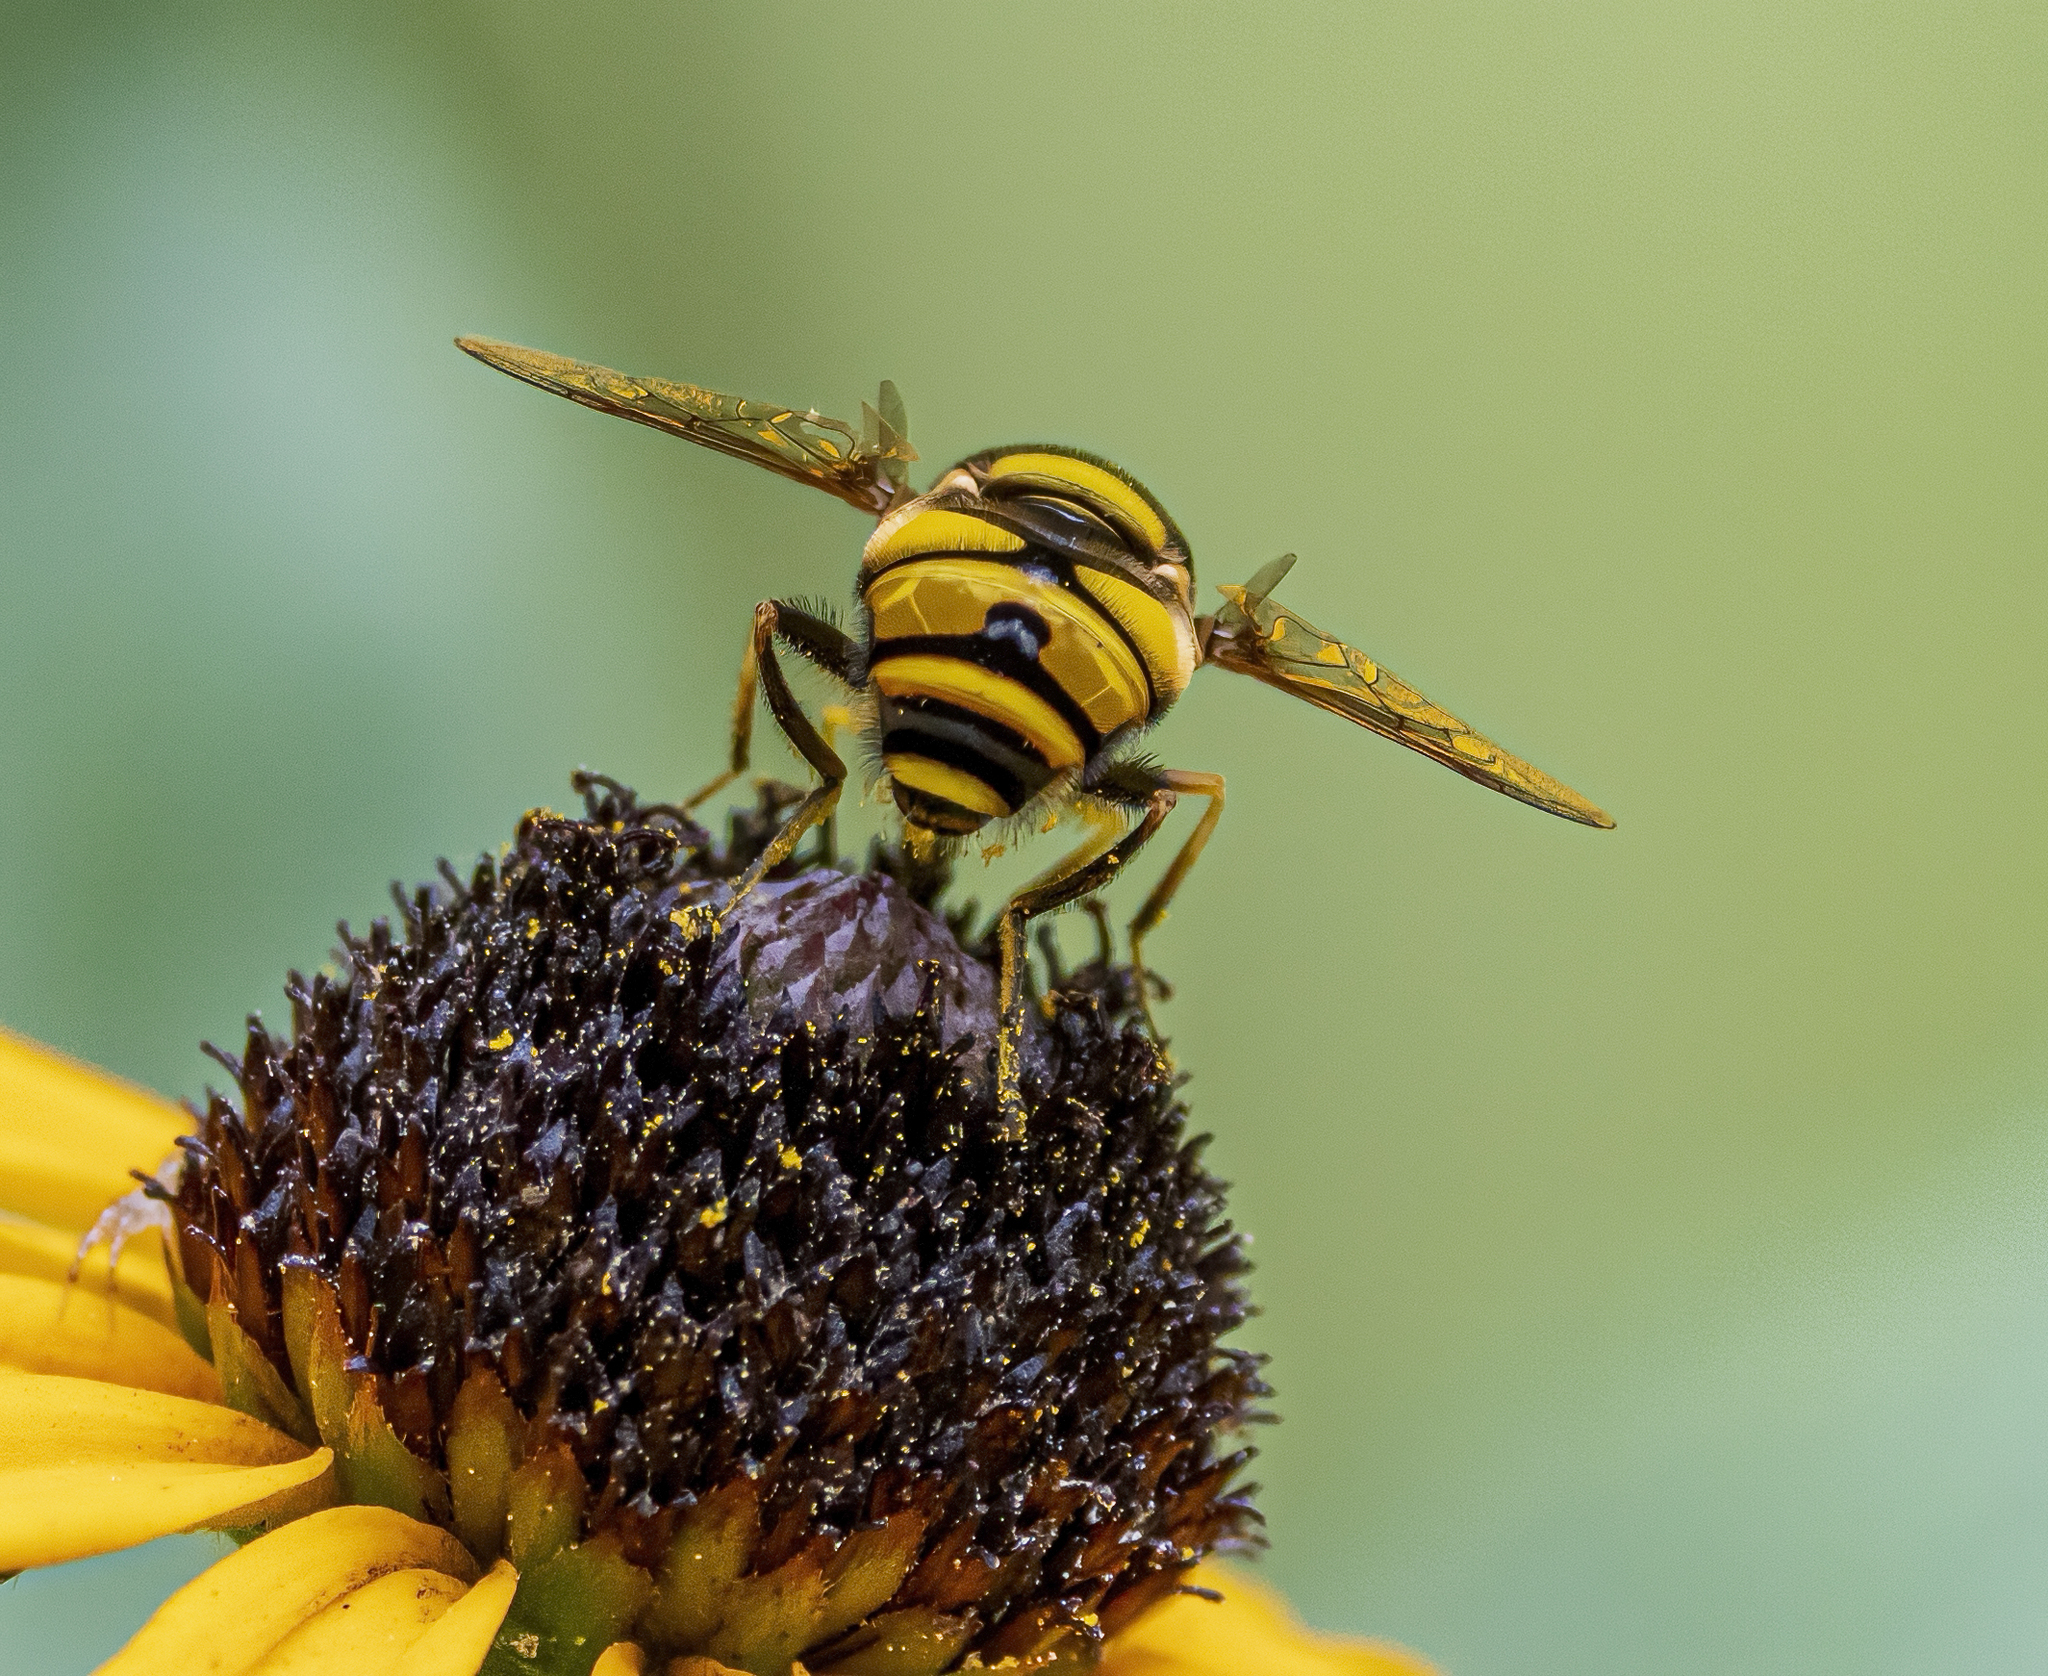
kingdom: Animalia
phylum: Arthropoda
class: Insecta
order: Diptera
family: Syrphidae
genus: Eristalis
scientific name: Eristalis transversa
